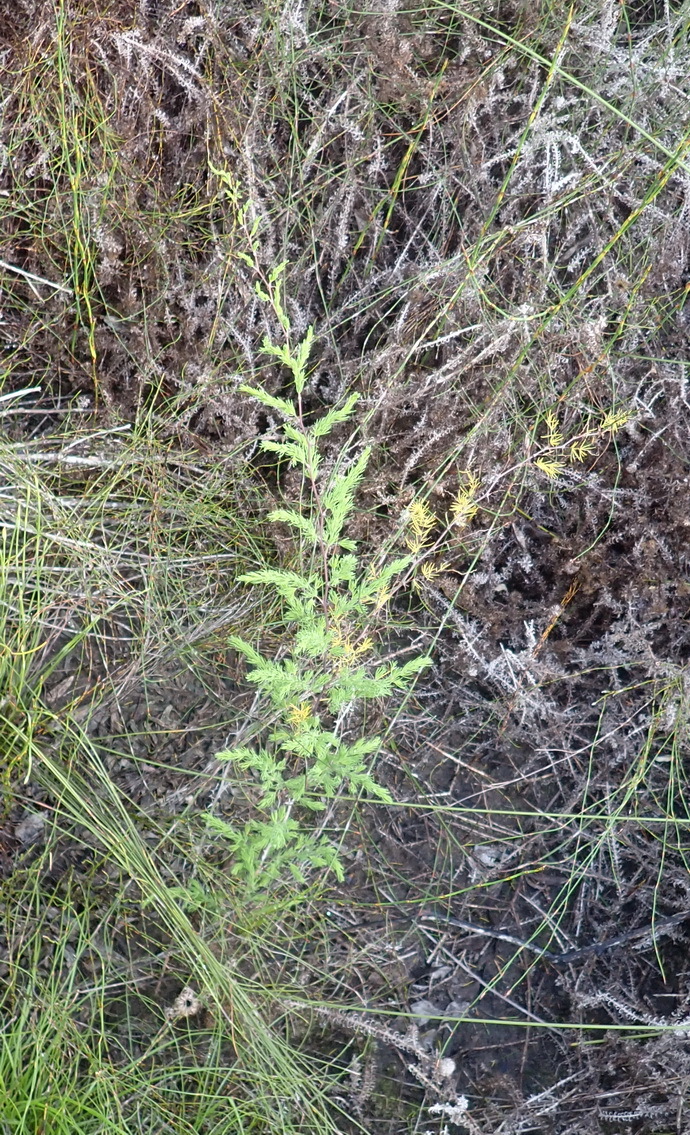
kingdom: Plantae
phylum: Tracheophyta
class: Liliopsida
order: Asparagales
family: Asparagaceae
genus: Asparagus
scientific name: Asparagus rubicundus
